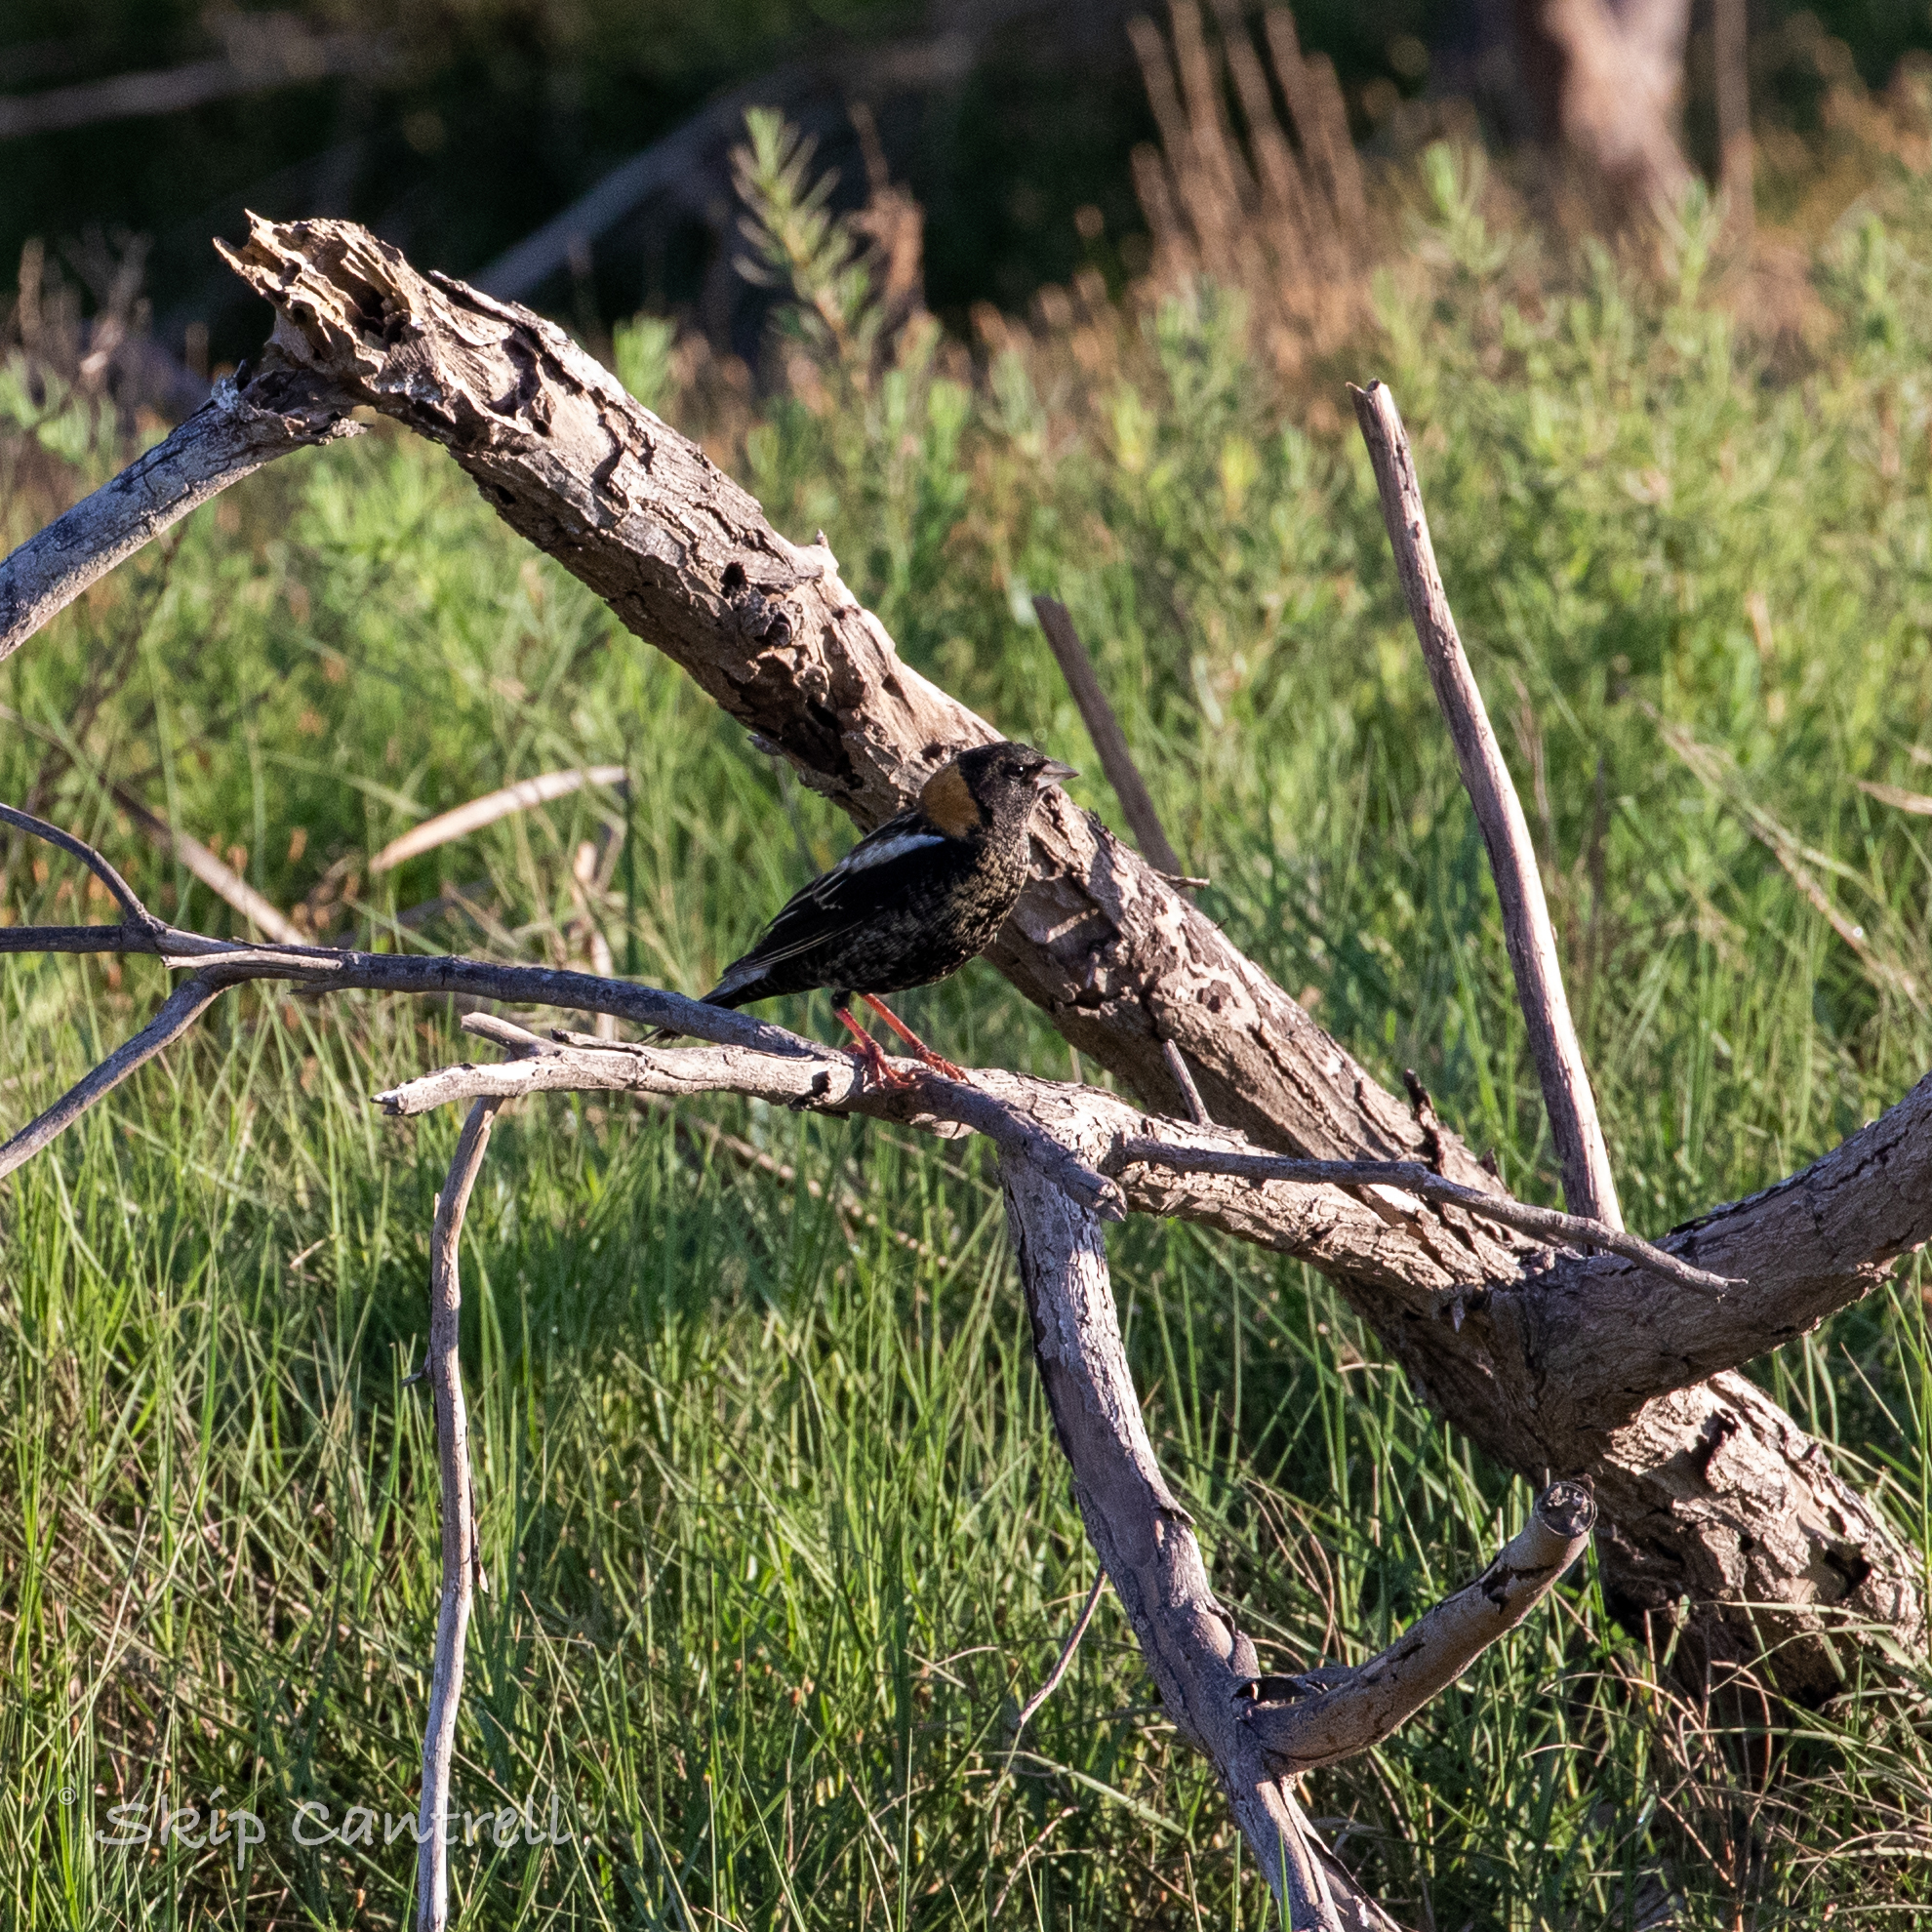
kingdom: Animalia
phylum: Chordata
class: Aves
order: Passeriformes
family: Icteridae
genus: Dolichonyx
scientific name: Dolichonyx oryzivorus
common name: Bobolink
